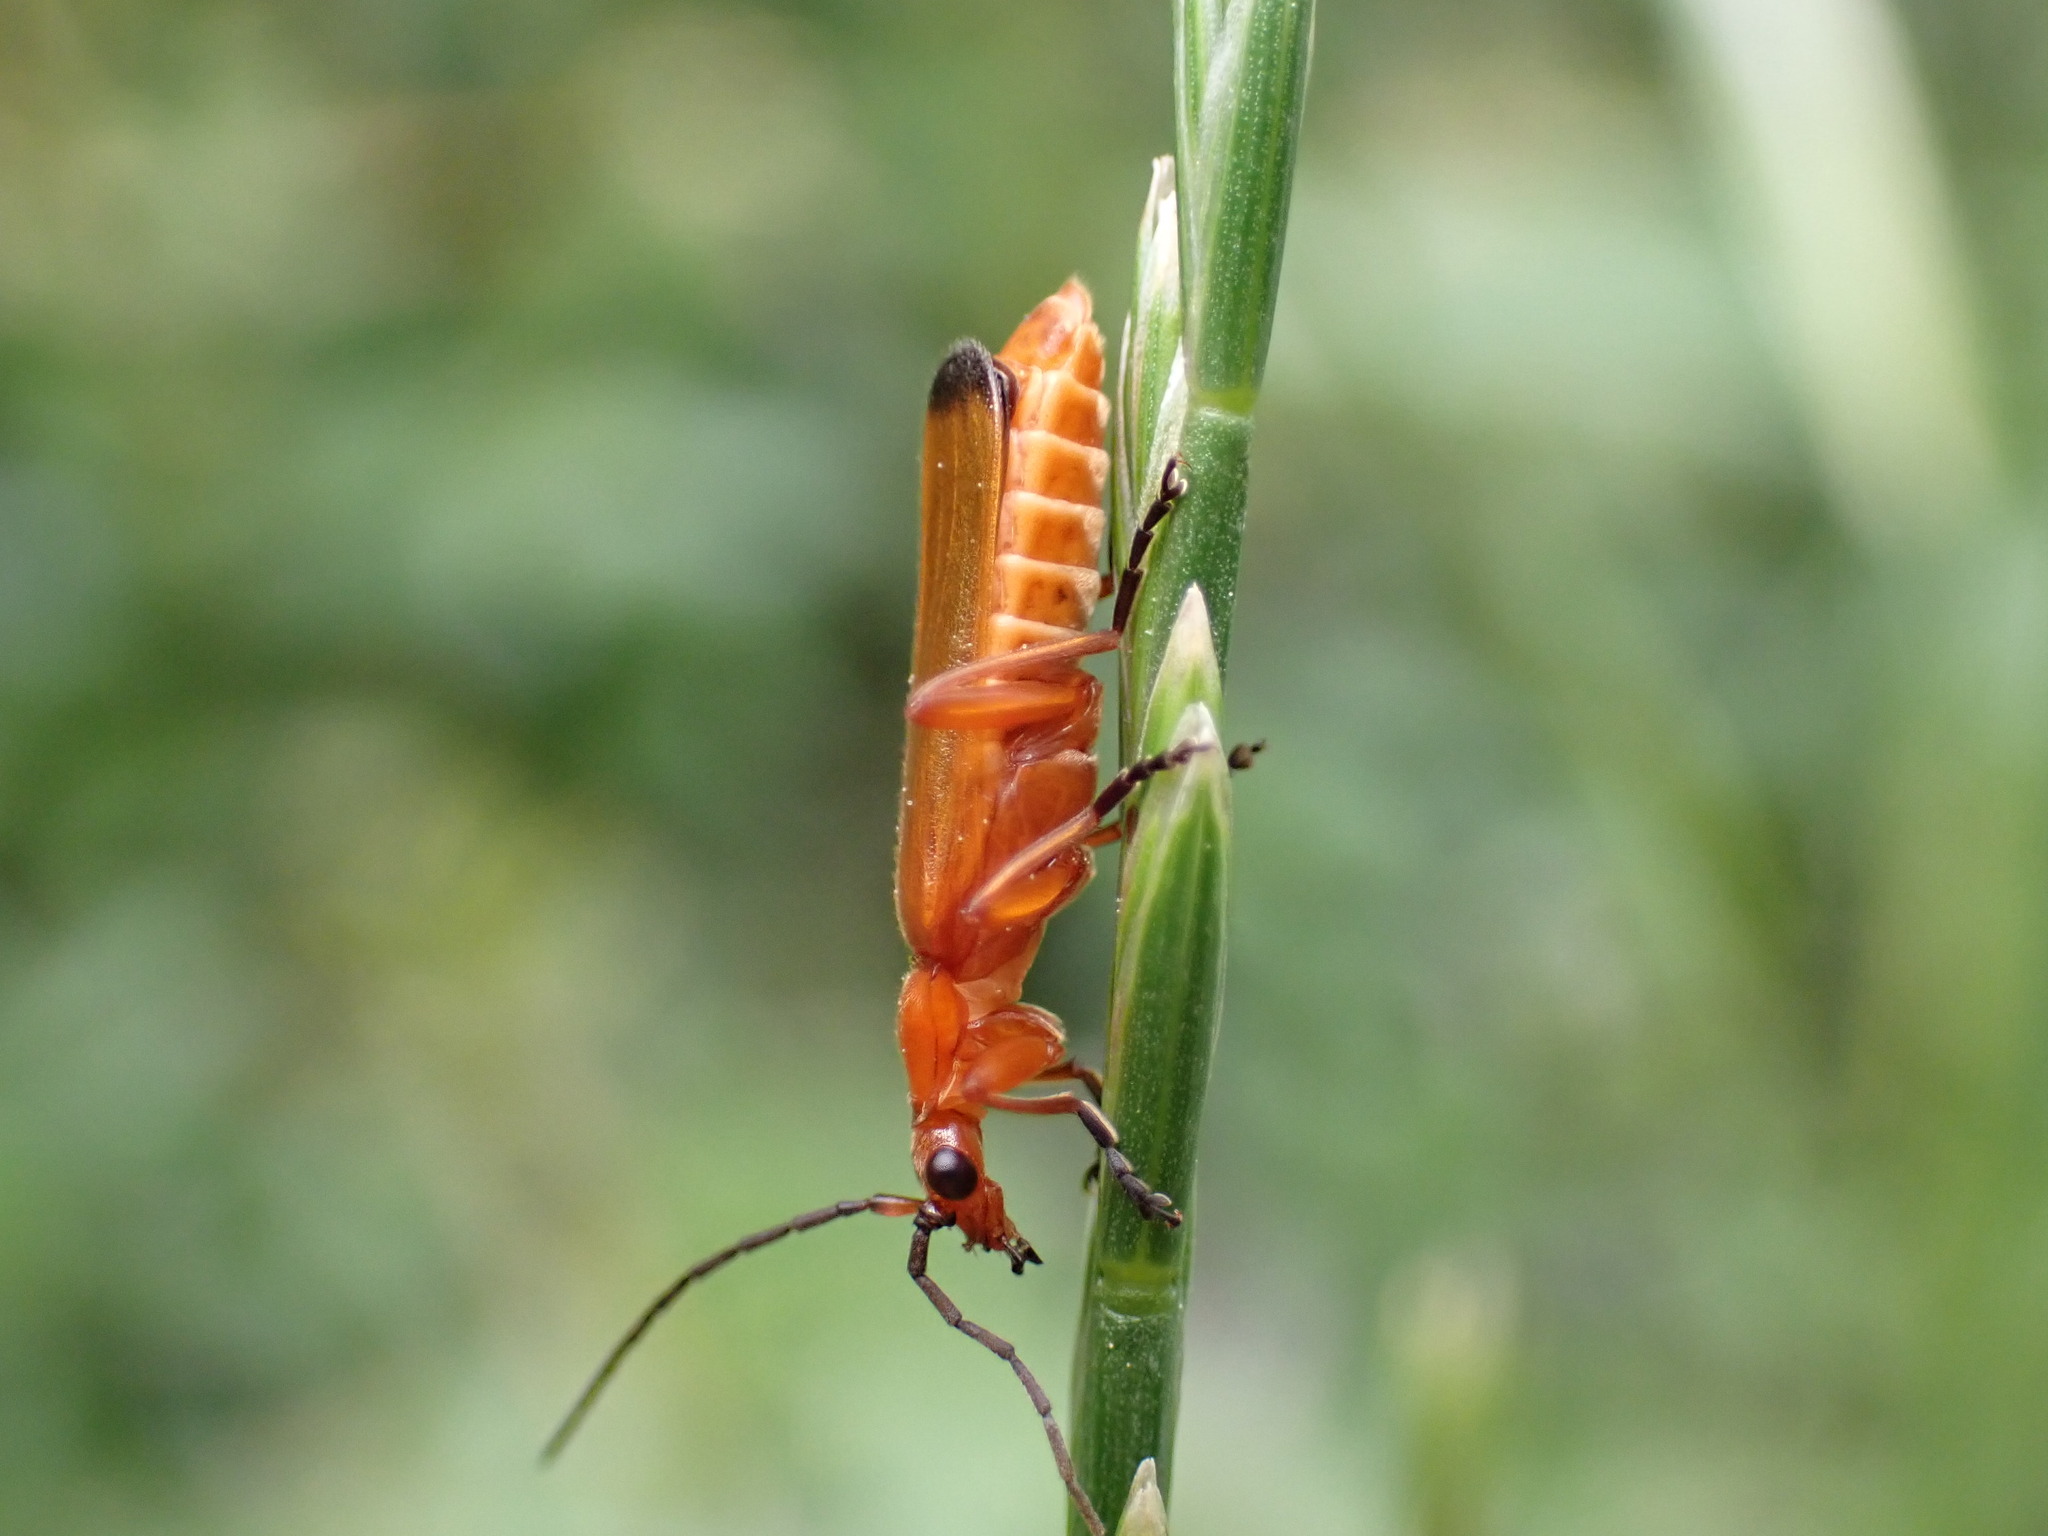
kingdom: Animalia
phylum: Arthropoda
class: Insecta
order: Coleoptera
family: Cantharidae
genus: Rhagonycha
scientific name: Rhagonycha fulva
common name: Common red soldier beetle
